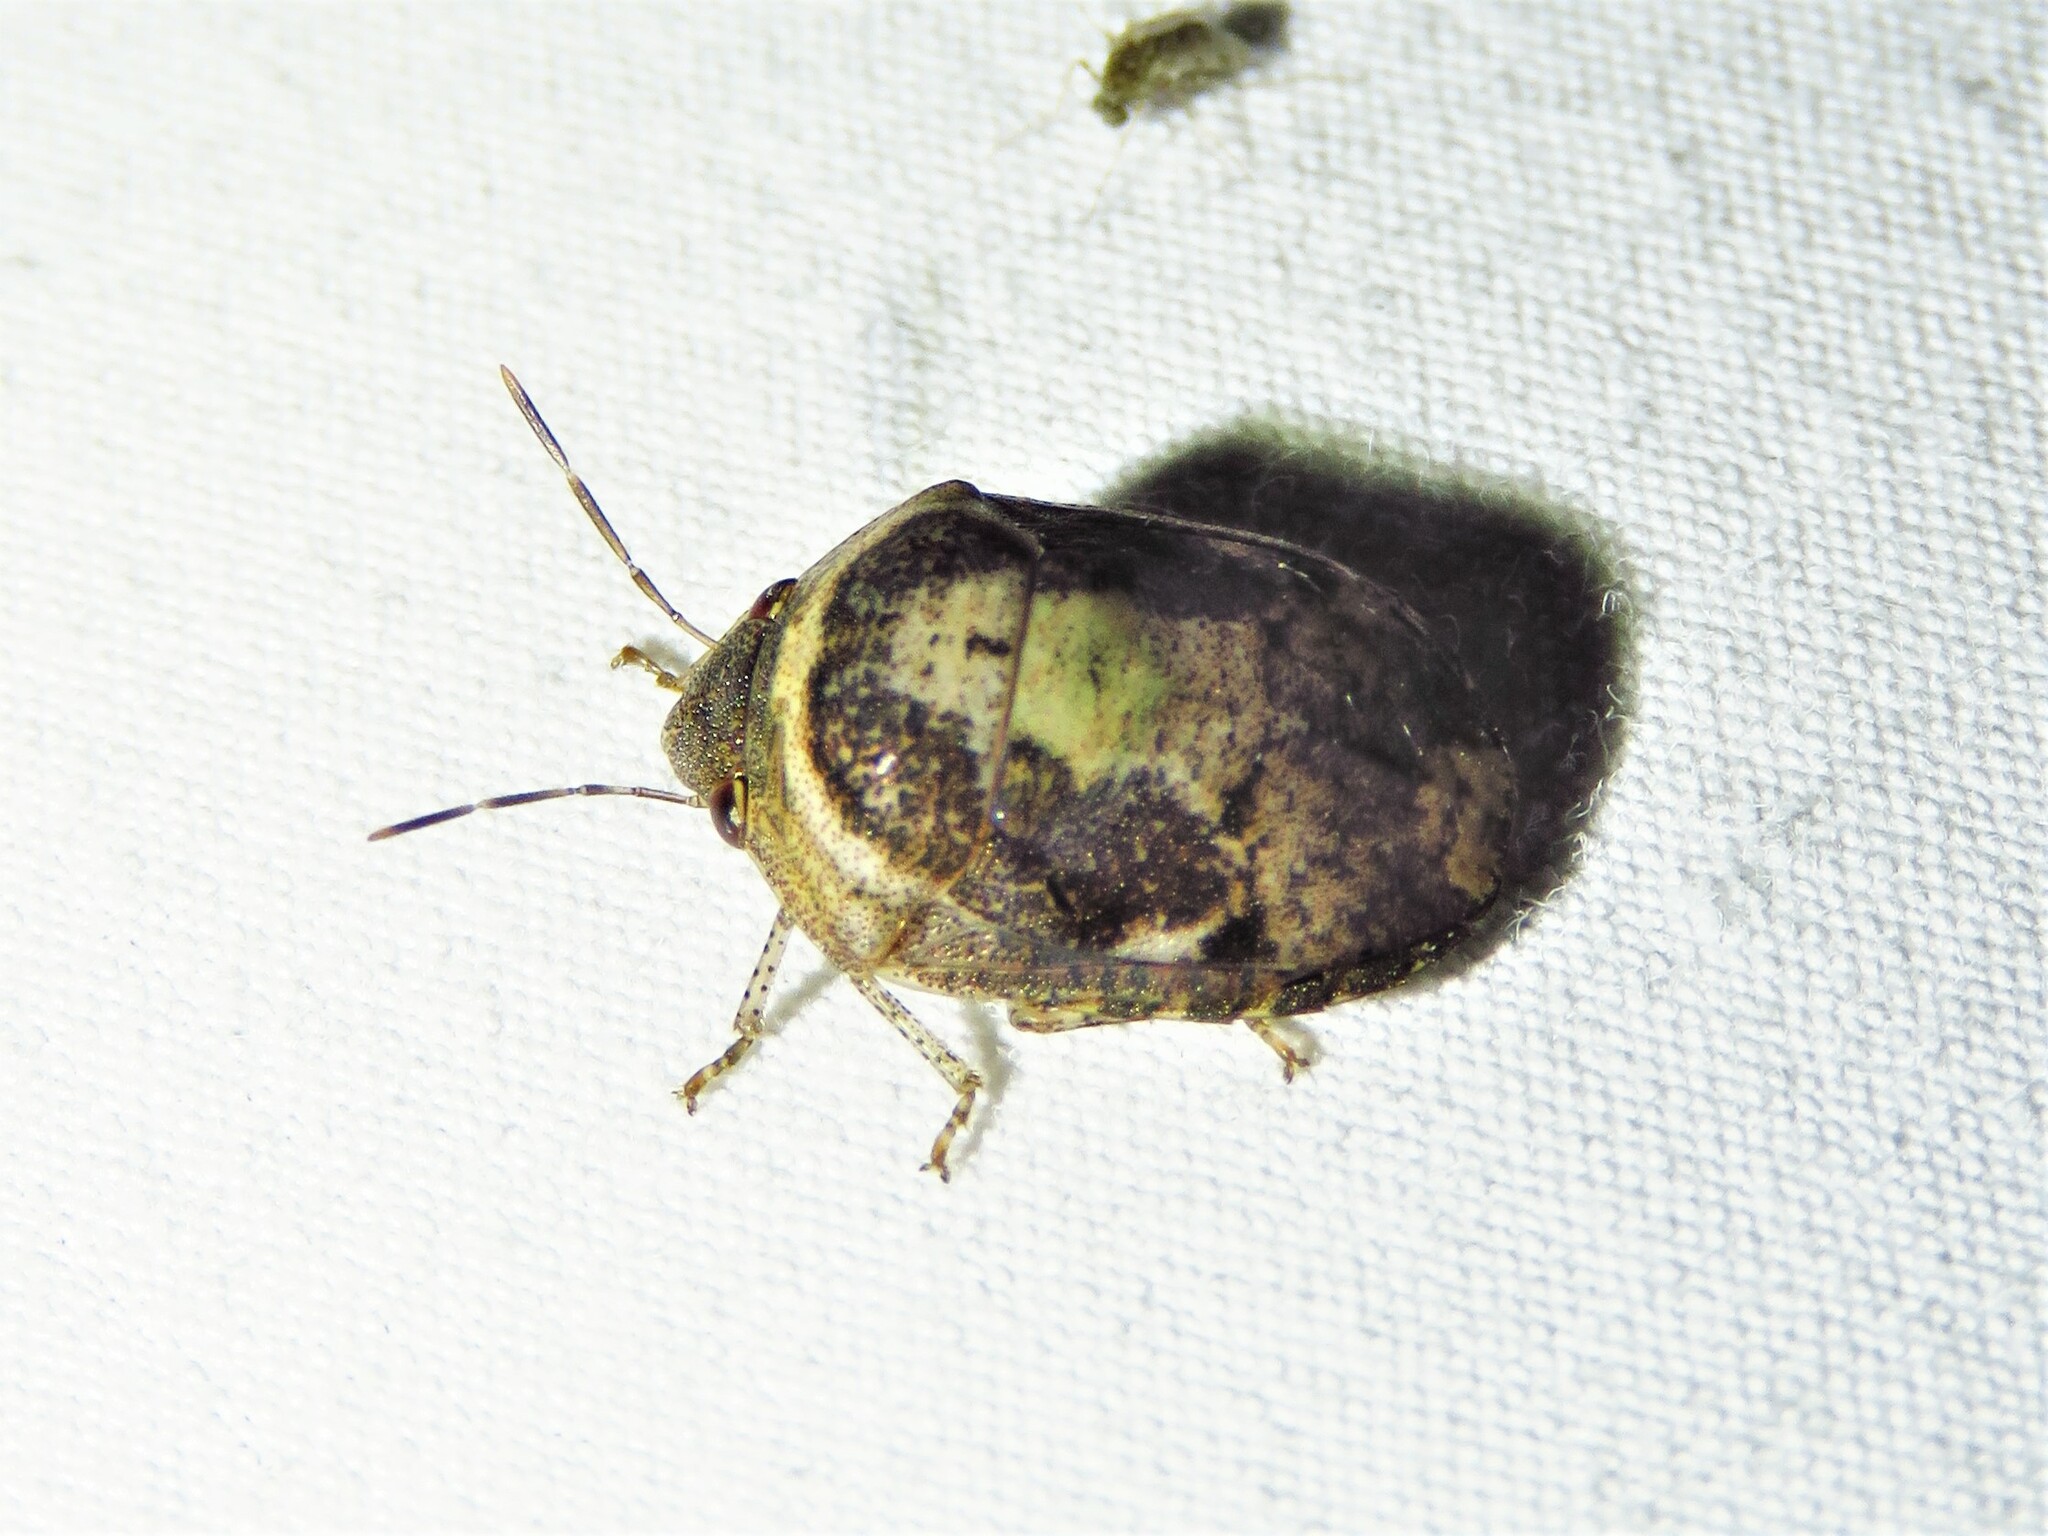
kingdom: Animalia
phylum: Arthropoda
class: Insecta
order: Hemiptera
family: Scutelleridae
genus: Symphylus
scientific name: Symphylus caribbeanus
